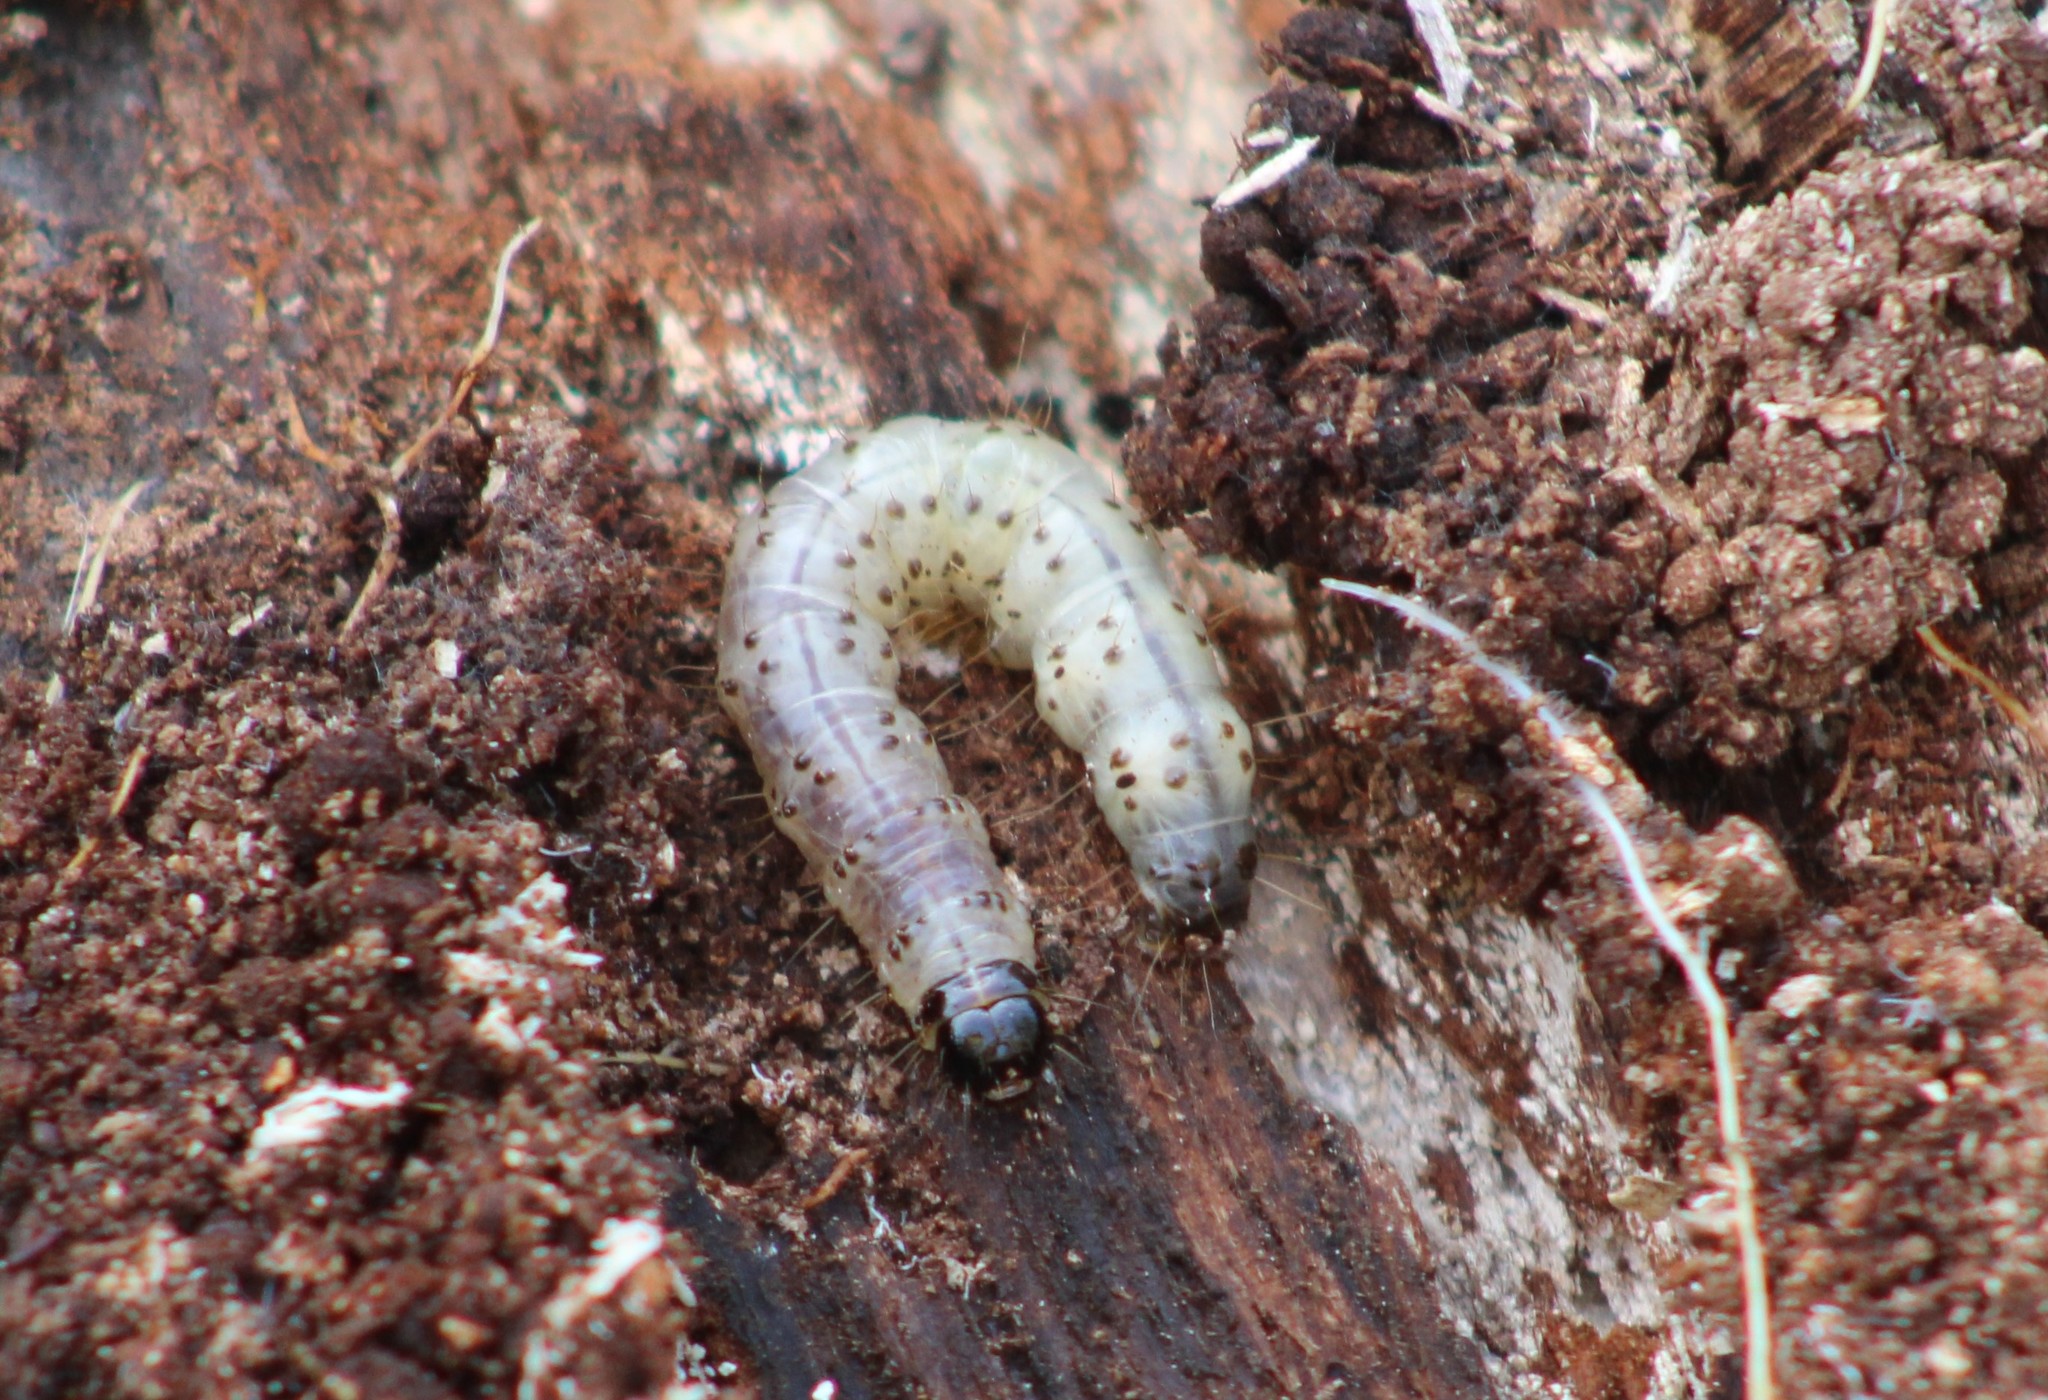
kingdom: Animalia
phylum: Arthropoda
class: Insecta
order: Lepidoptera
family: Erebidae
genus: Scolecocampa
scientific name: Scolecocampa liburna
